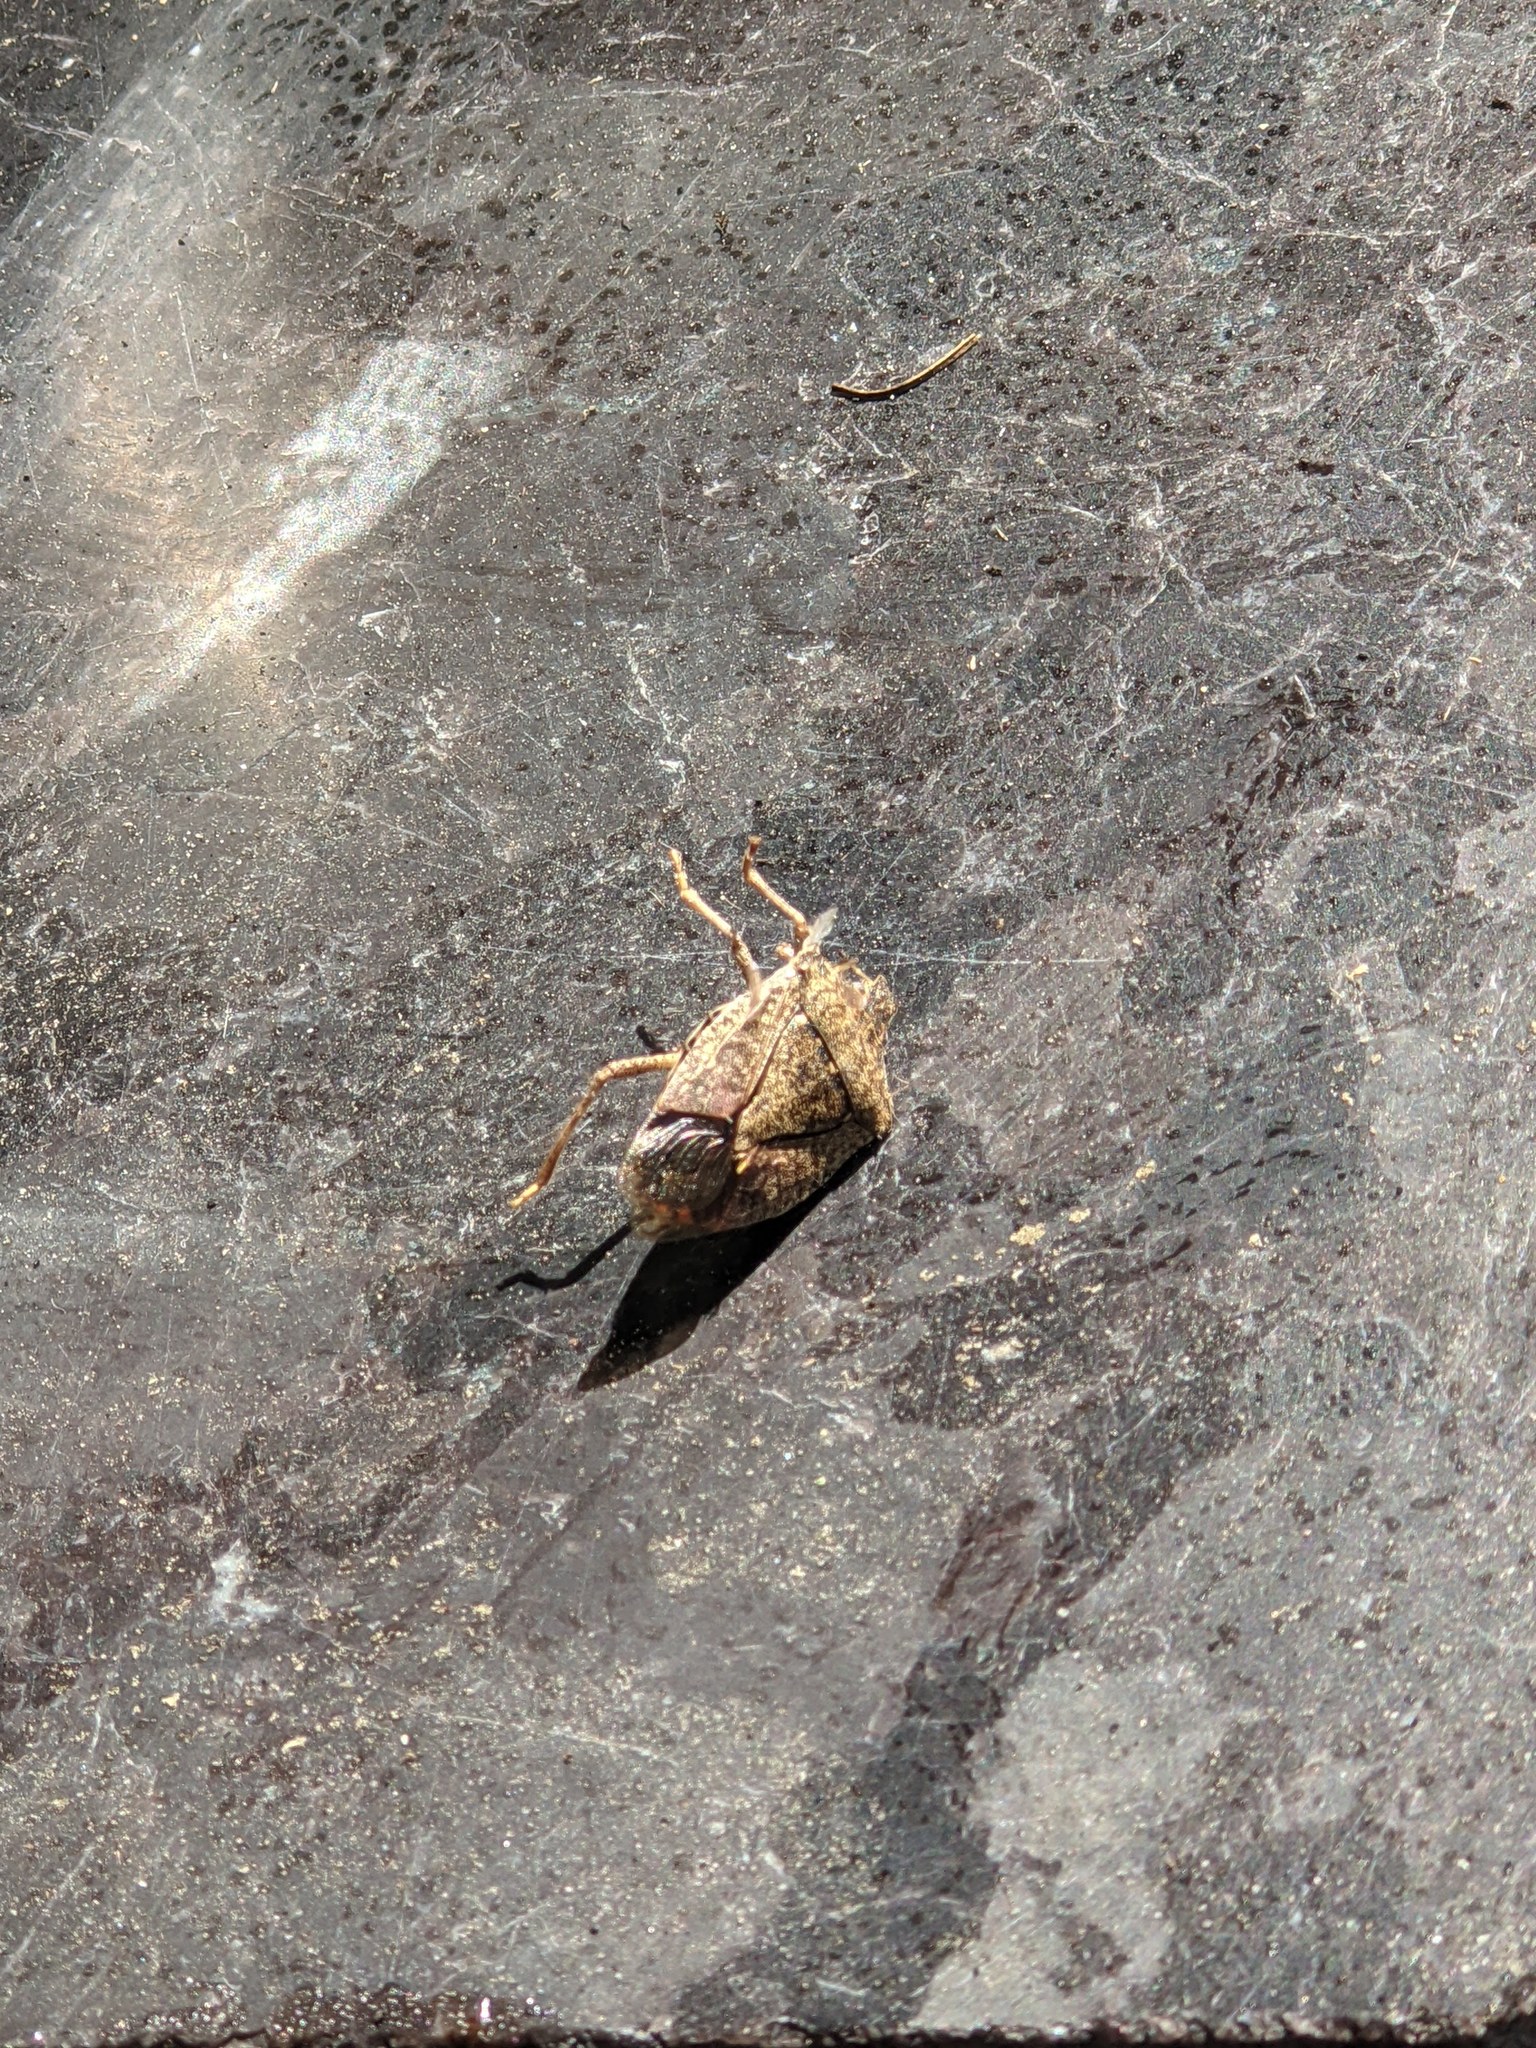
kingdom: Animalia
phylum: Arthropoda
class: Insecta
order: Hemiptera
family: Pentatomidae
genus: Halyomorpha
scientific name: Halyomorpha halys
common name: Brown marmorated stink bug
